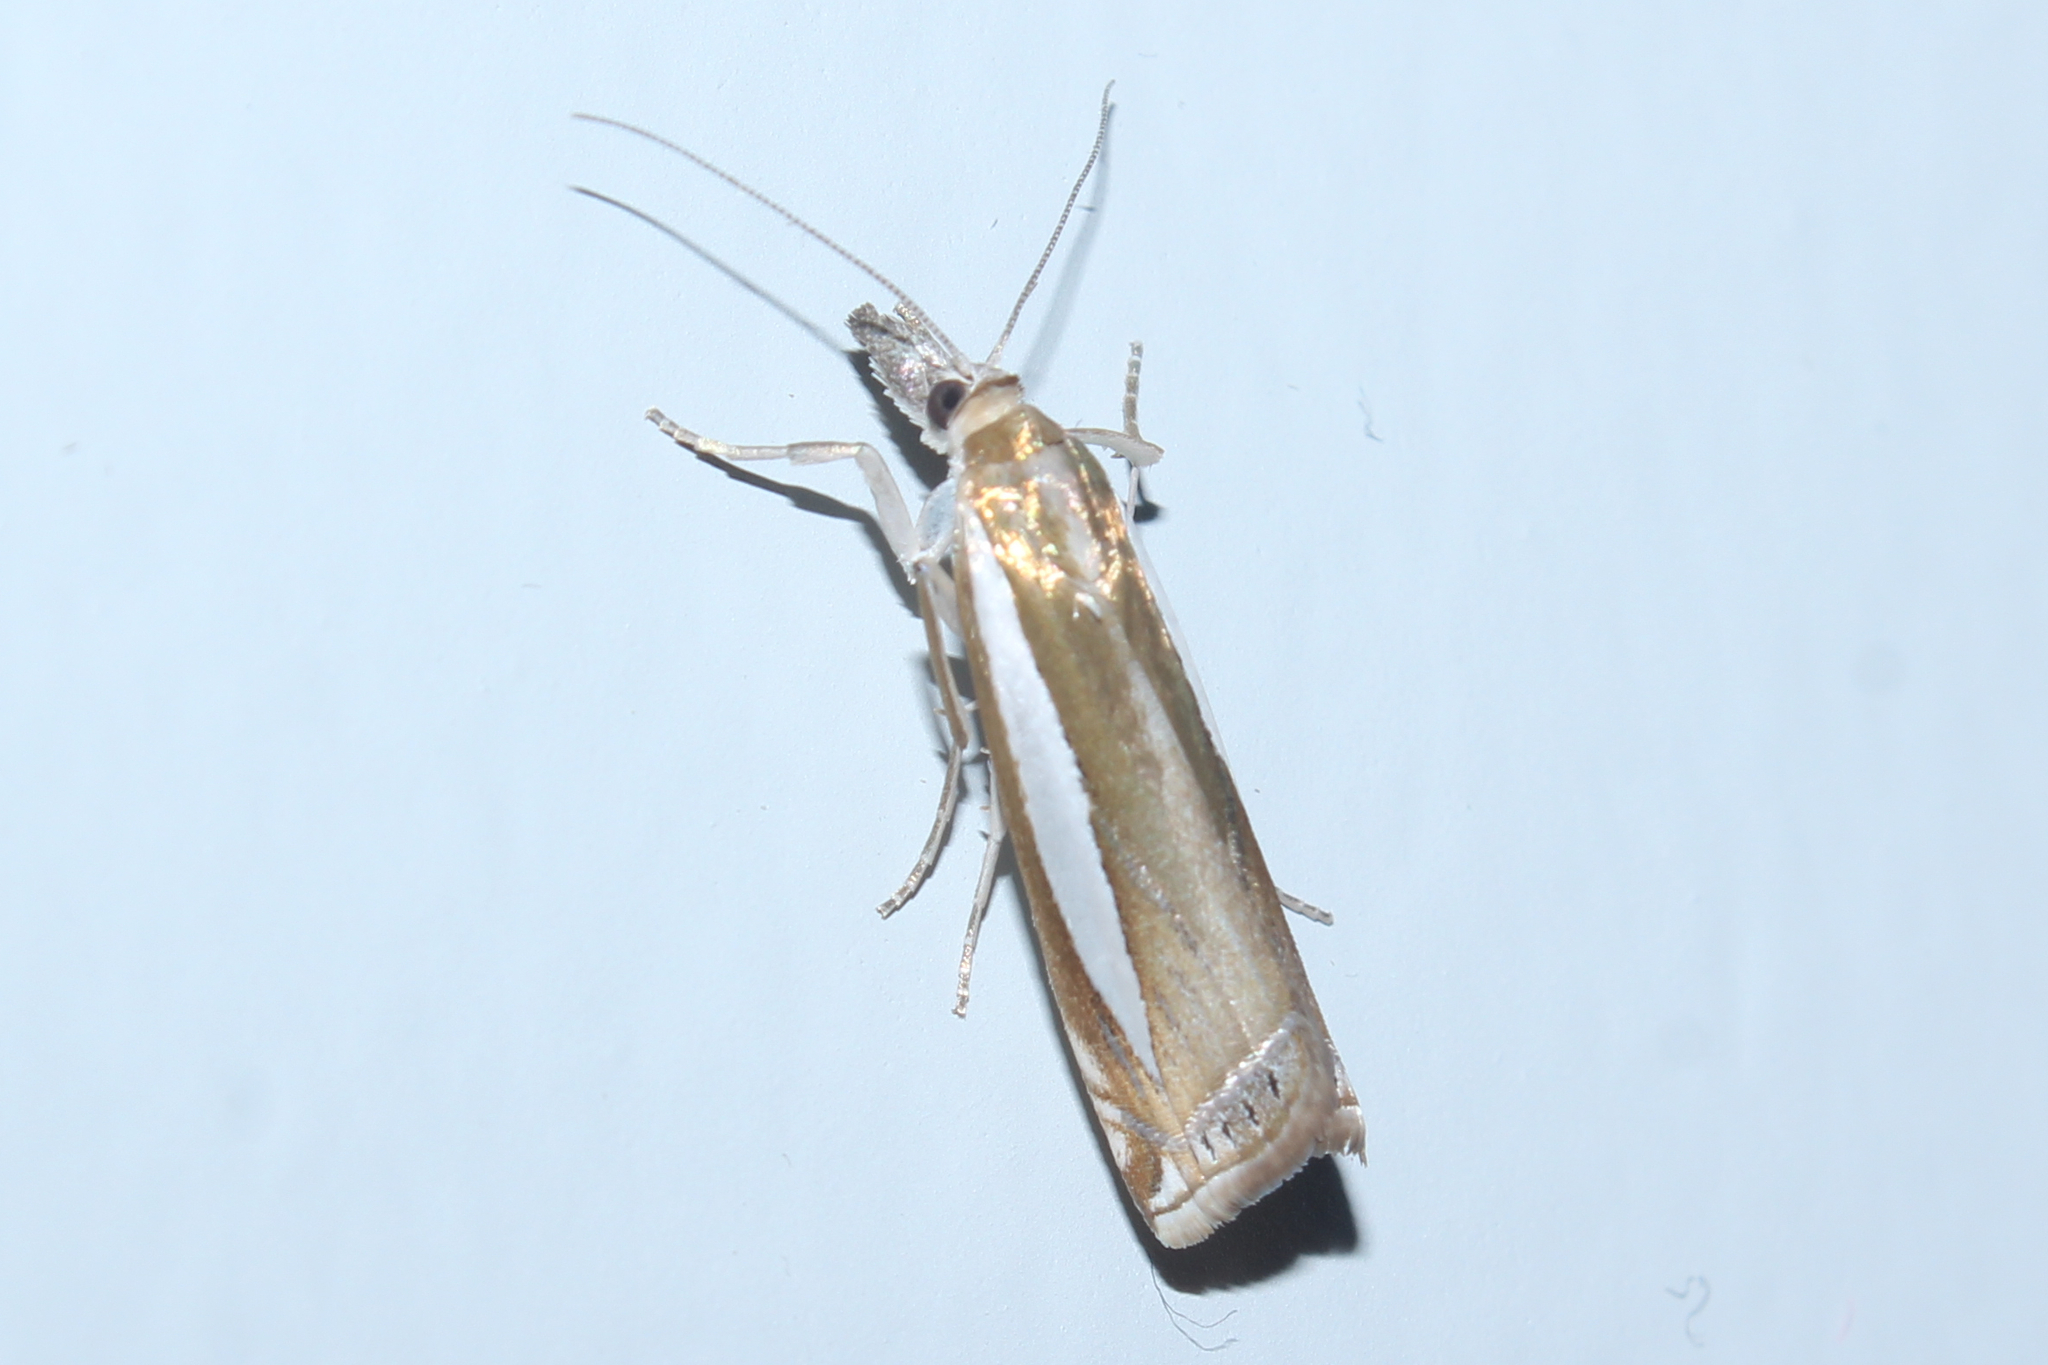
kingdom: Animalia
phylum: Arthropoda
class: Insecta
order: Lepidoptera
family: Crambidae
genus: Crambus
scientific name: Crambus praefectellus
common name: Common grass-veneer
